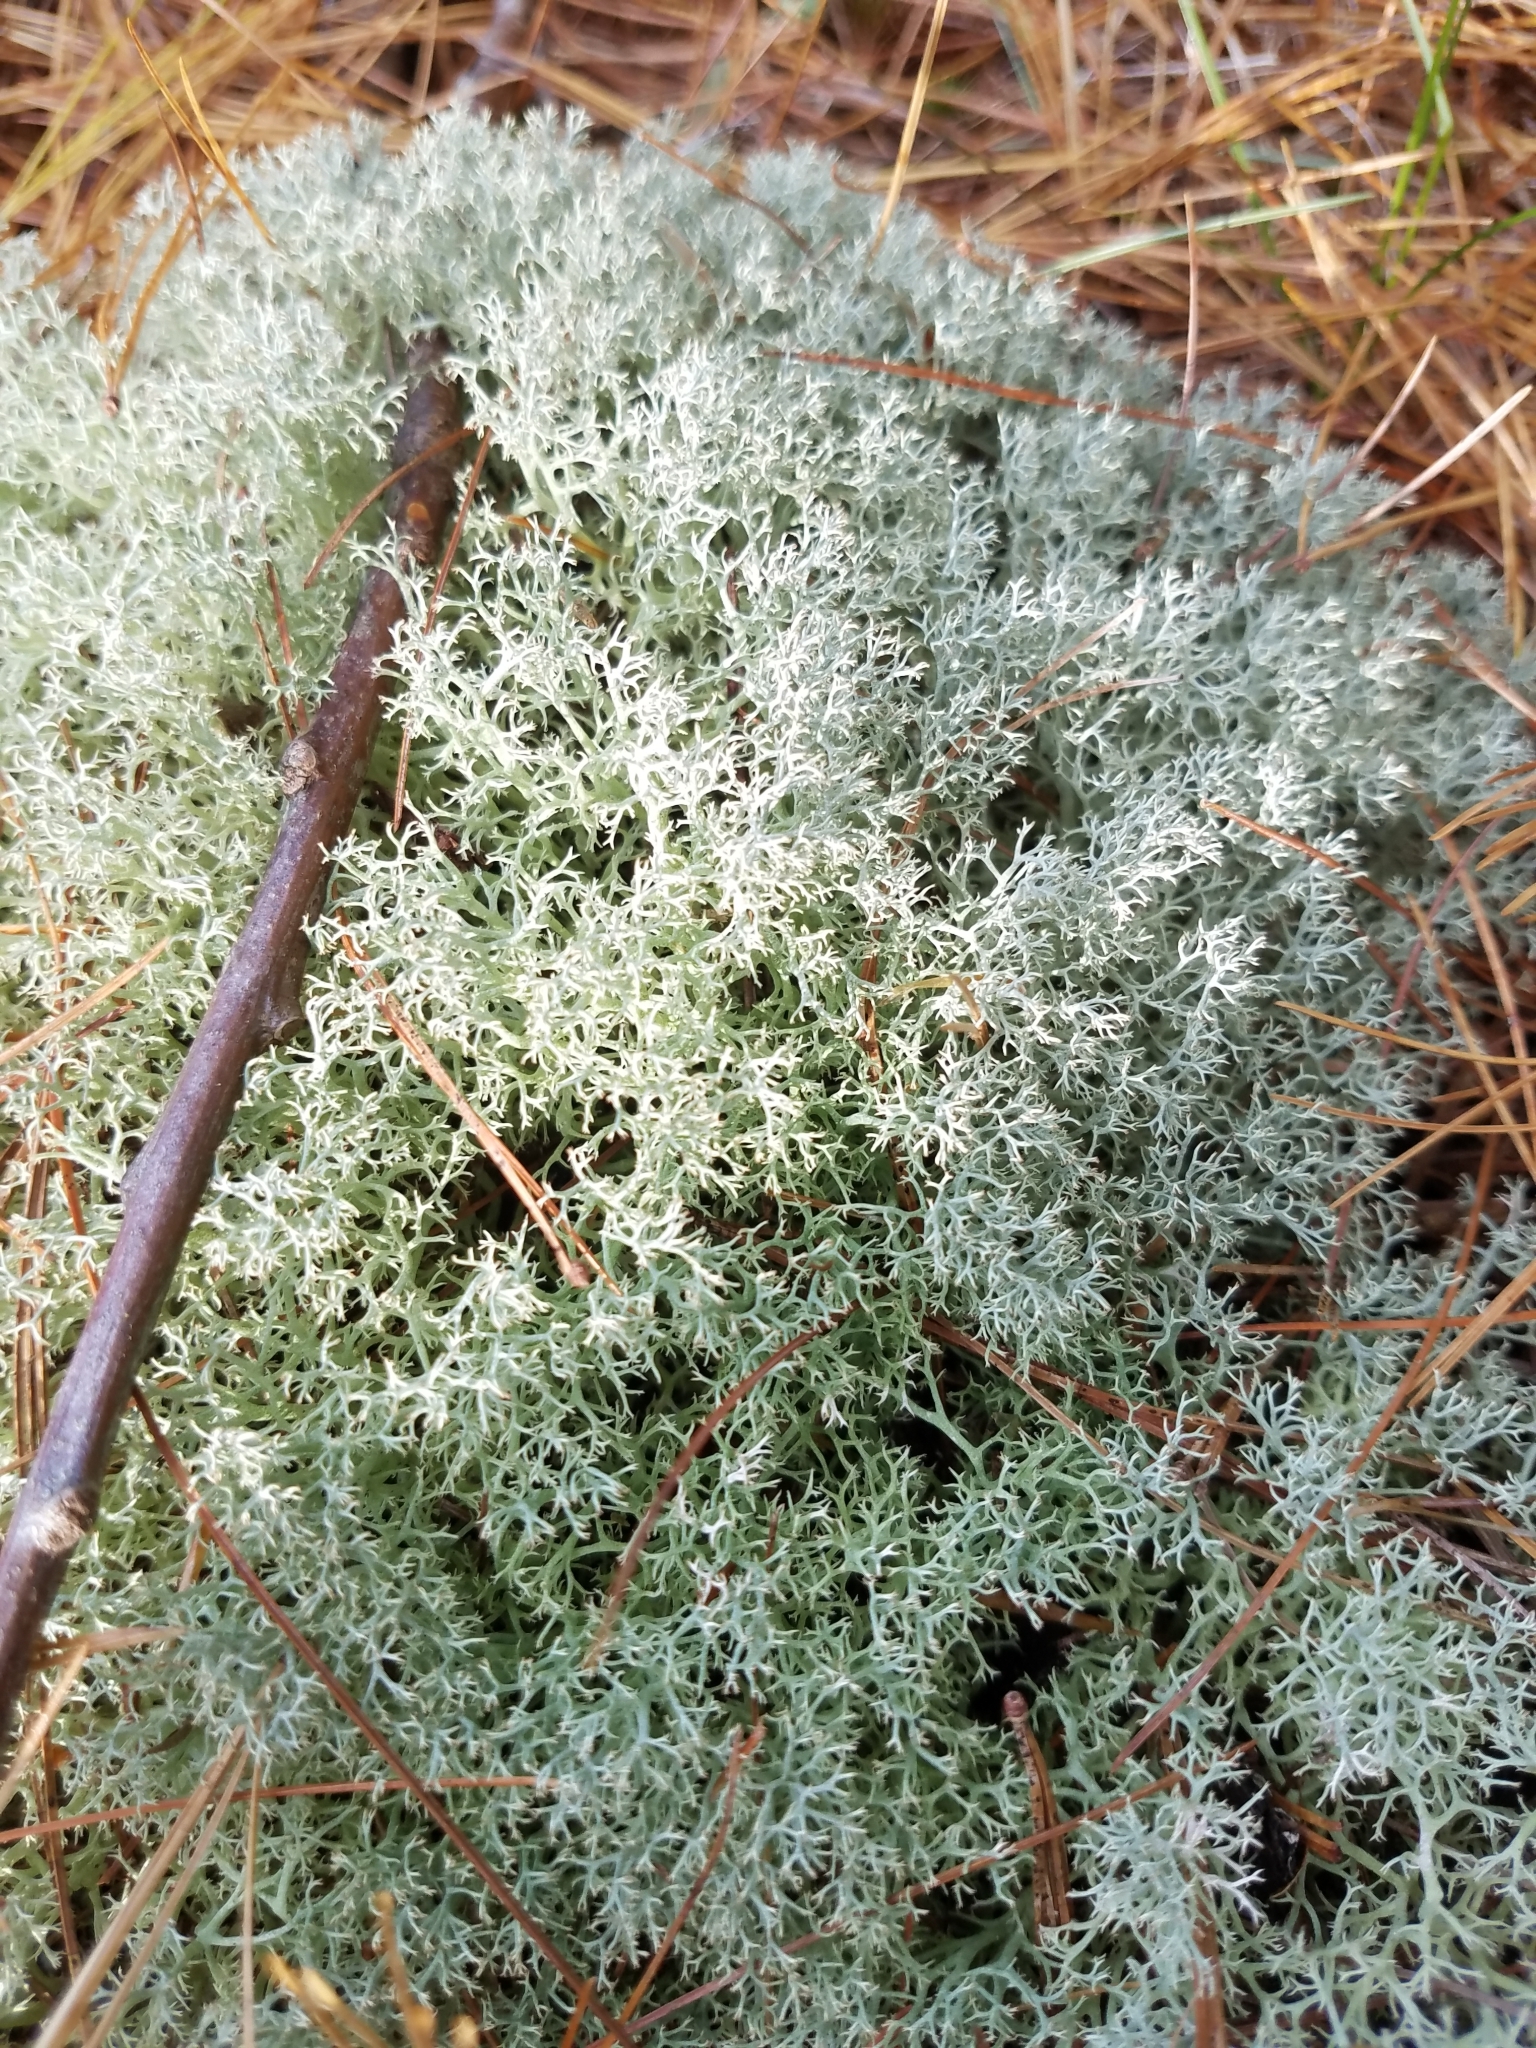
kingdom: Fungi
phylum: Ascomycota
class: Lecanoromycetes
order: Lecanorales
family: Cladoniaceae
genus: Cladonia
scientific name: Cladonia subtenuis
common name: Dixie reindeer lichen
